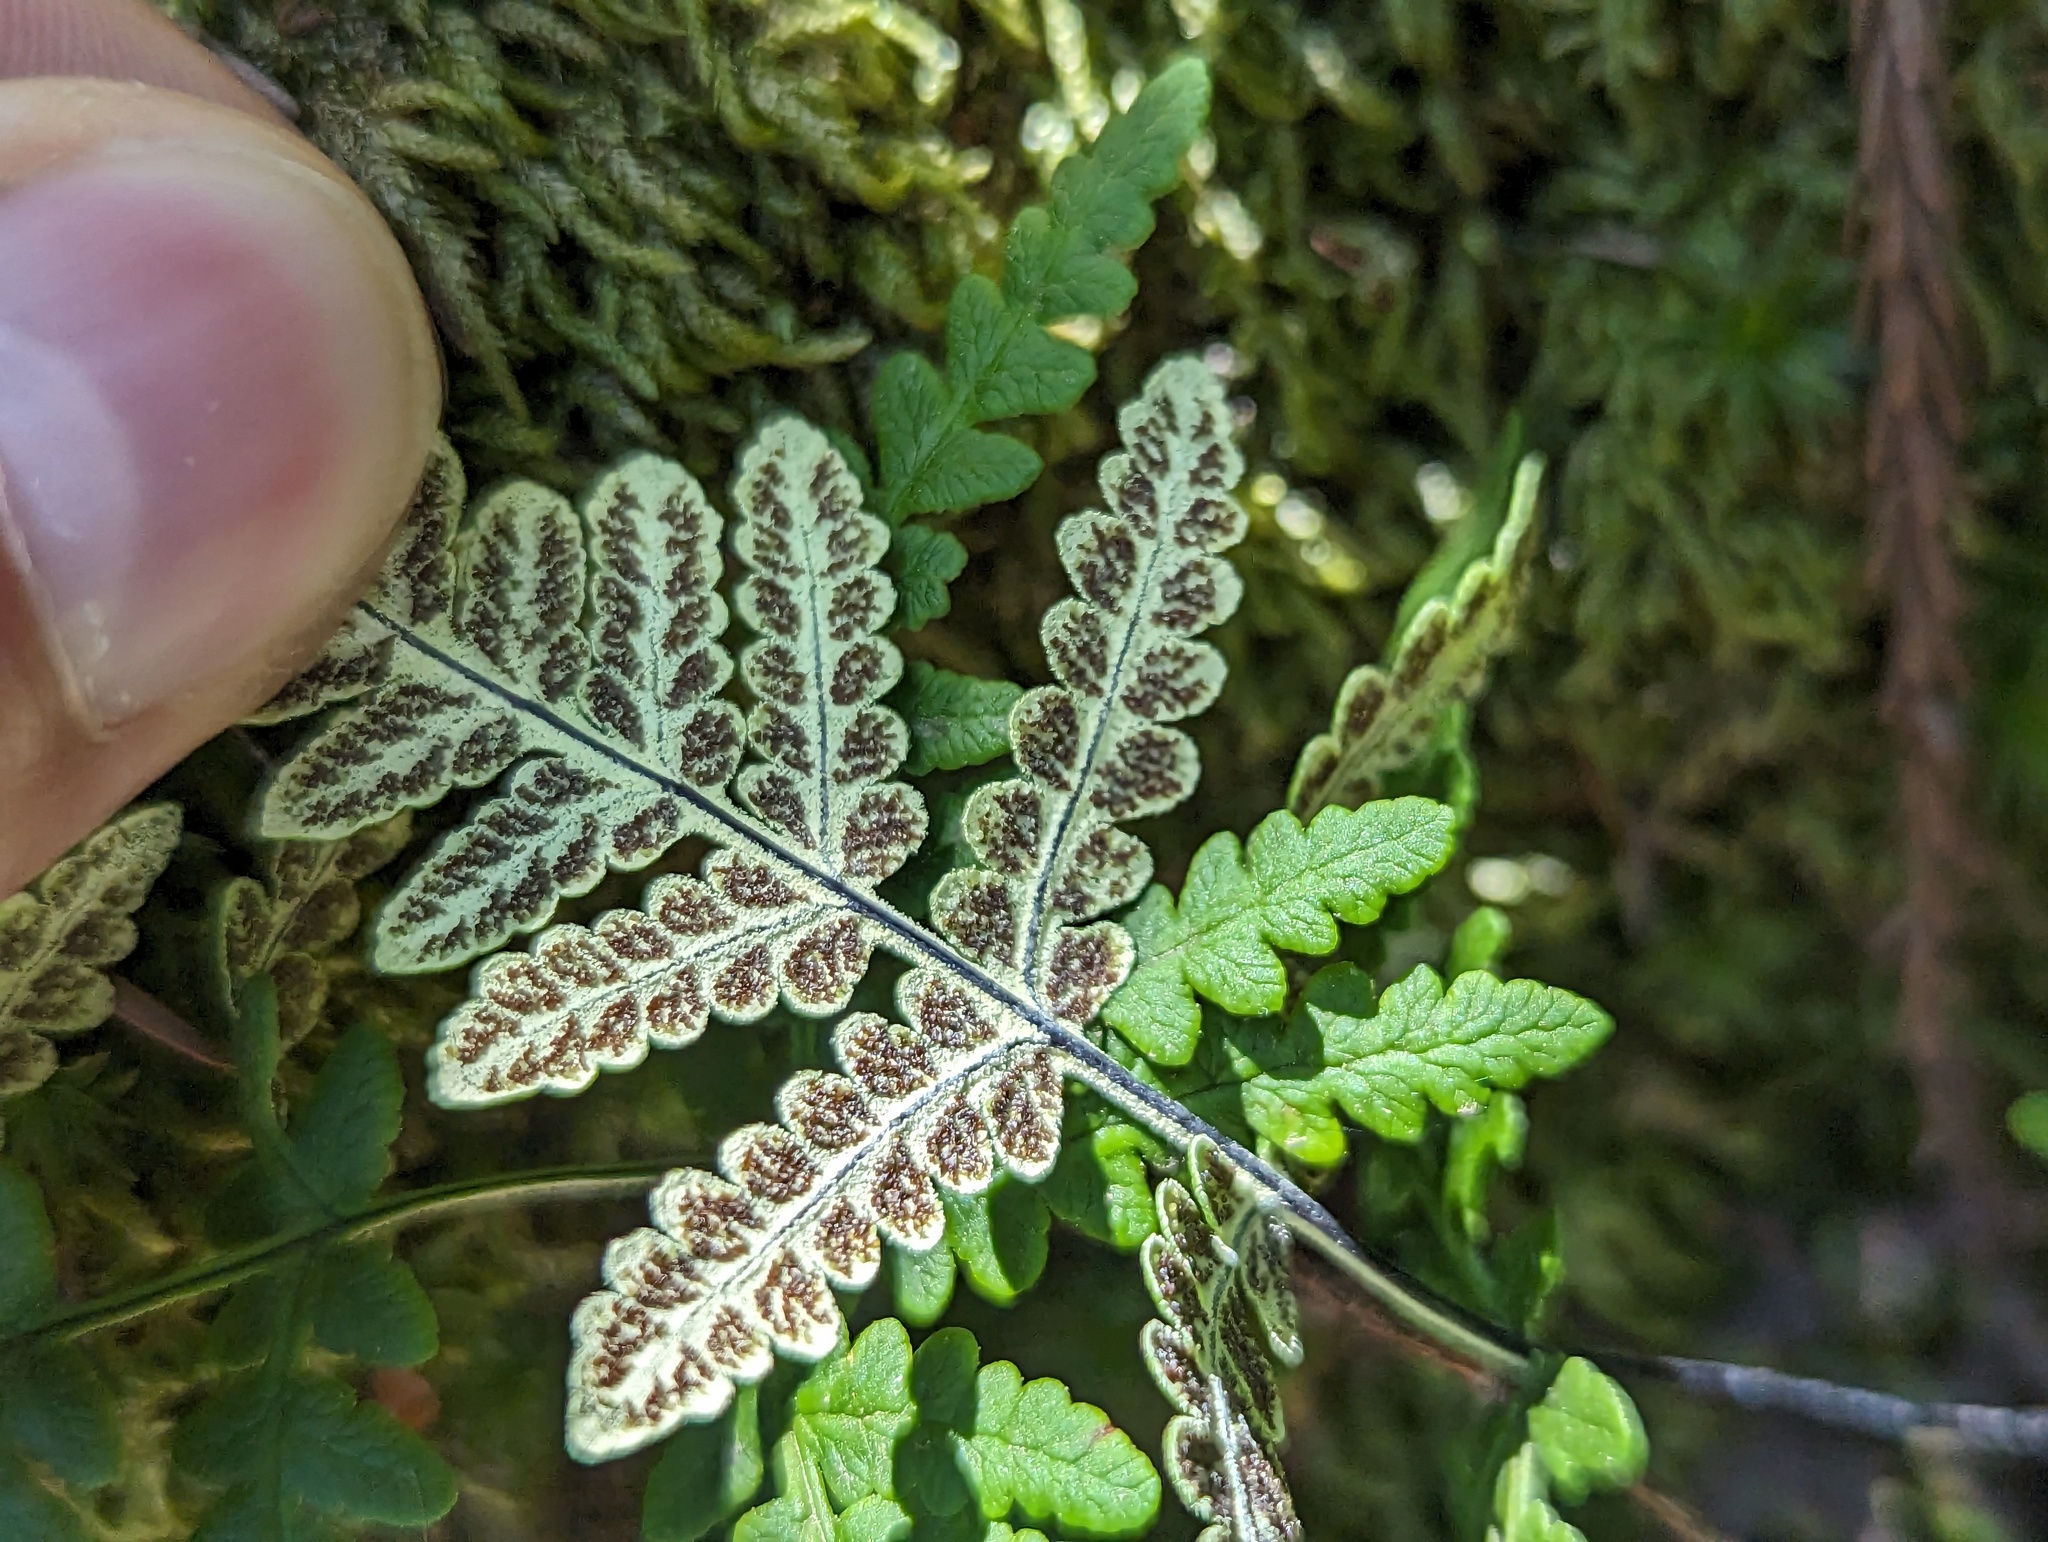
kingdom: Plantae
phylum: Tracheophyta
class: Polypodiopsida
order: Polypodiales
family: Pteridaceae
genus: Pentagramma
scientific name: Pentagramma triangularis
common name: Gold fern
